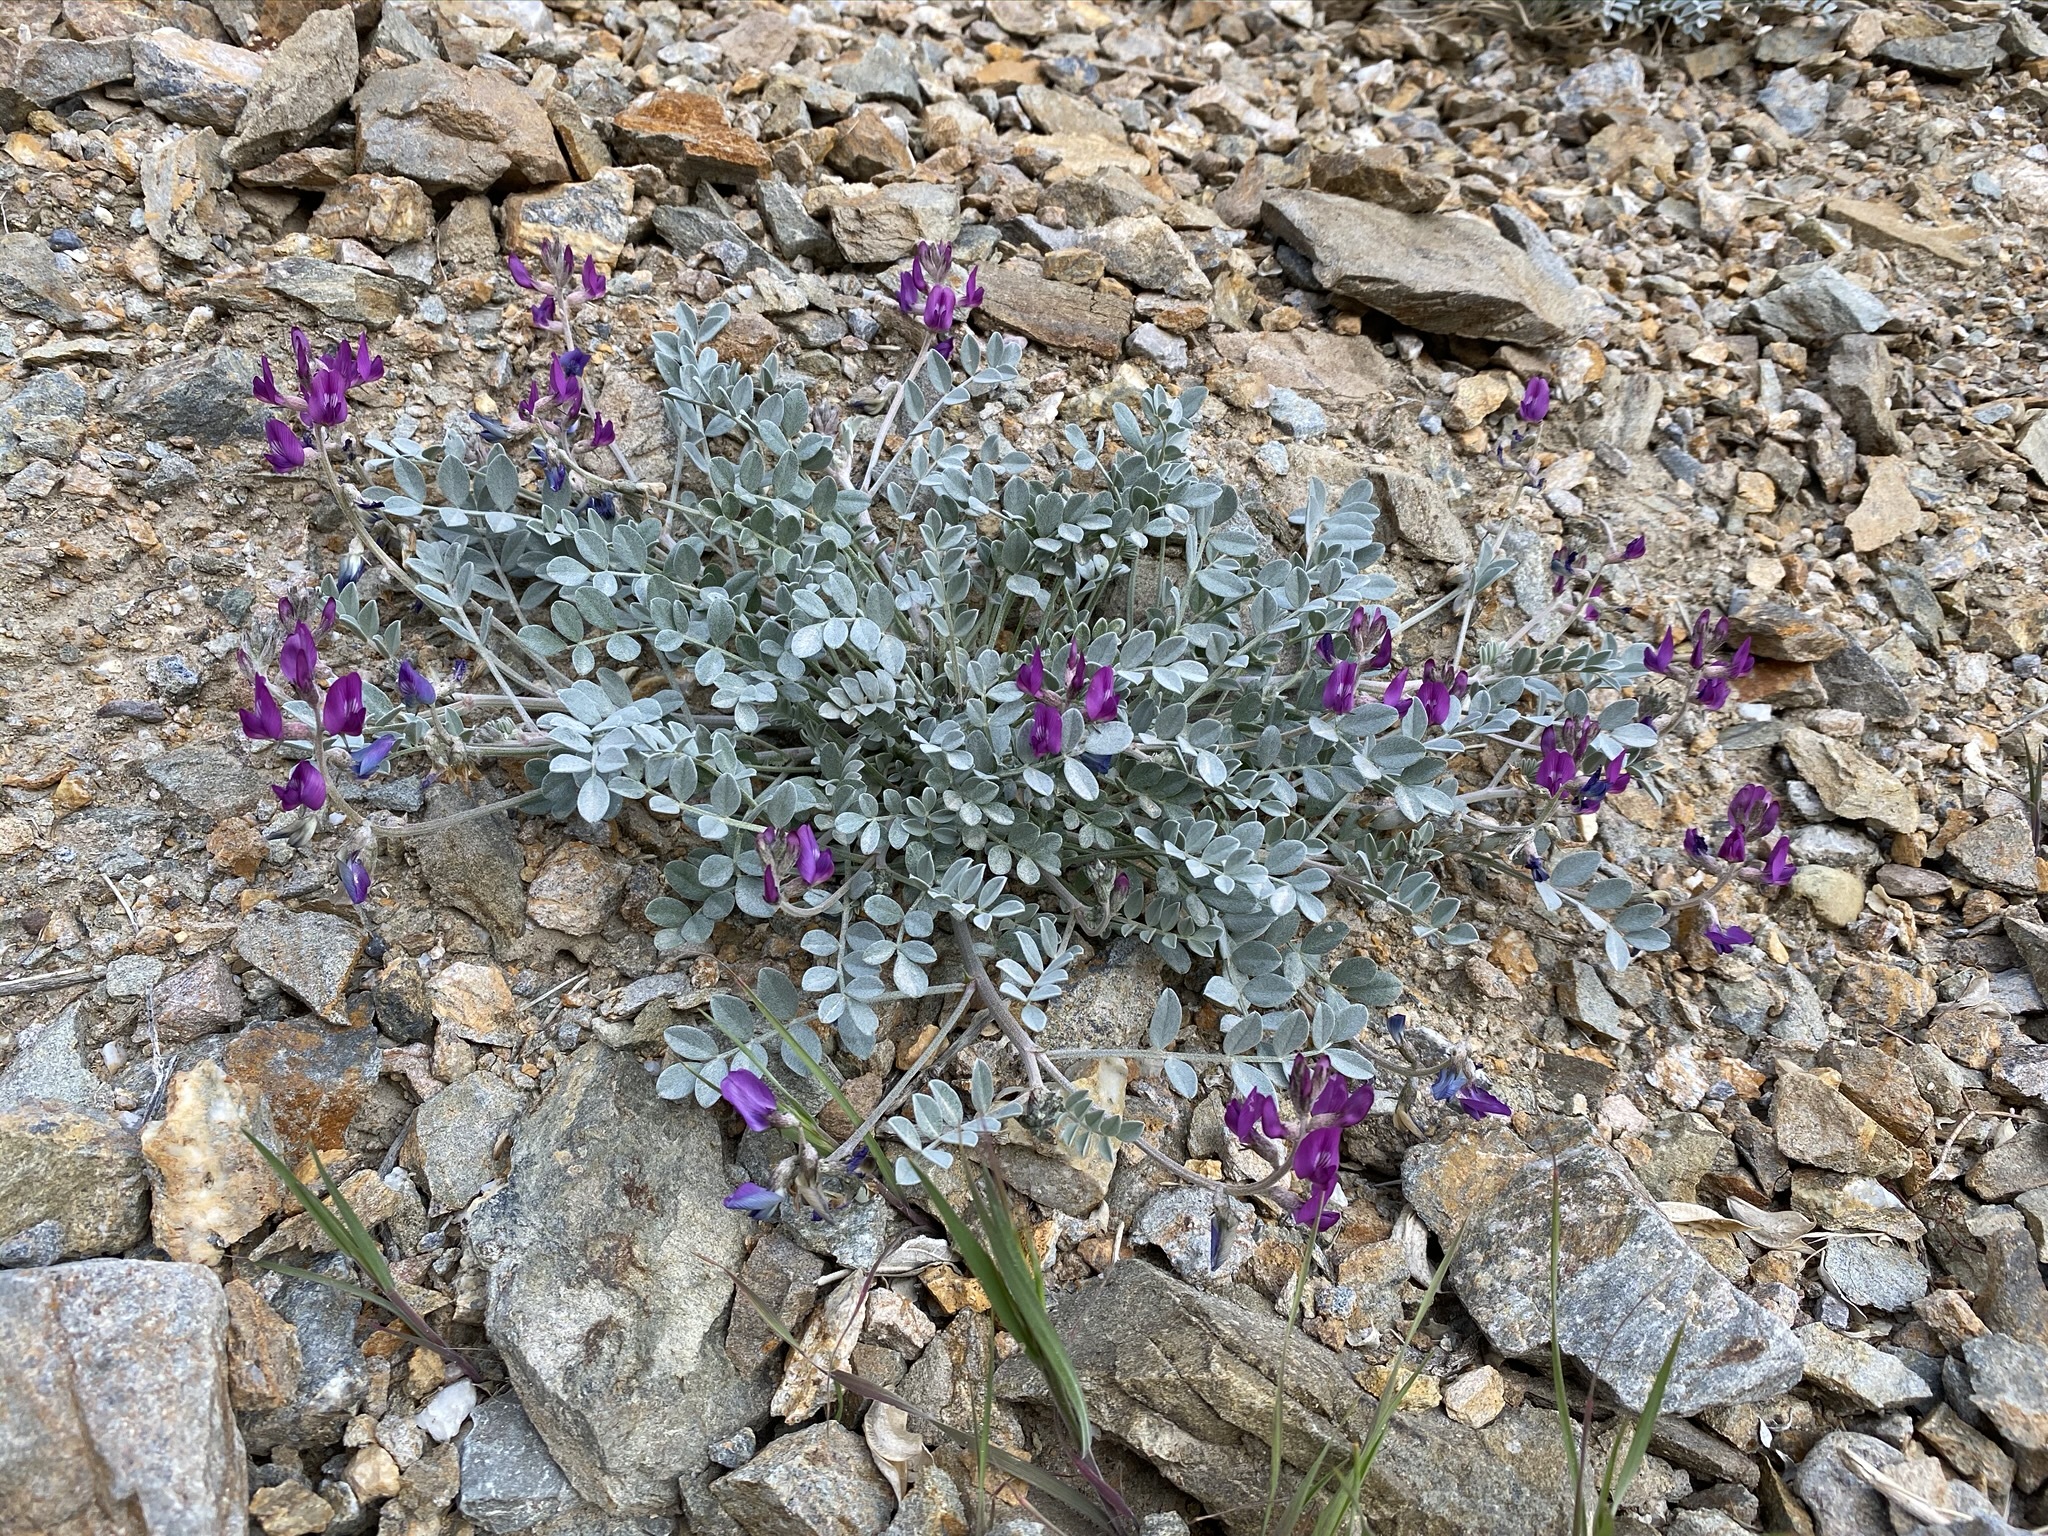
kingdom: Plantae
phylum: Tracheophyta
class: Magnoliopsida
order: Fabales
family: Fabaceae
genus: Astragalus
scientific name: Astragalus mohavensis
